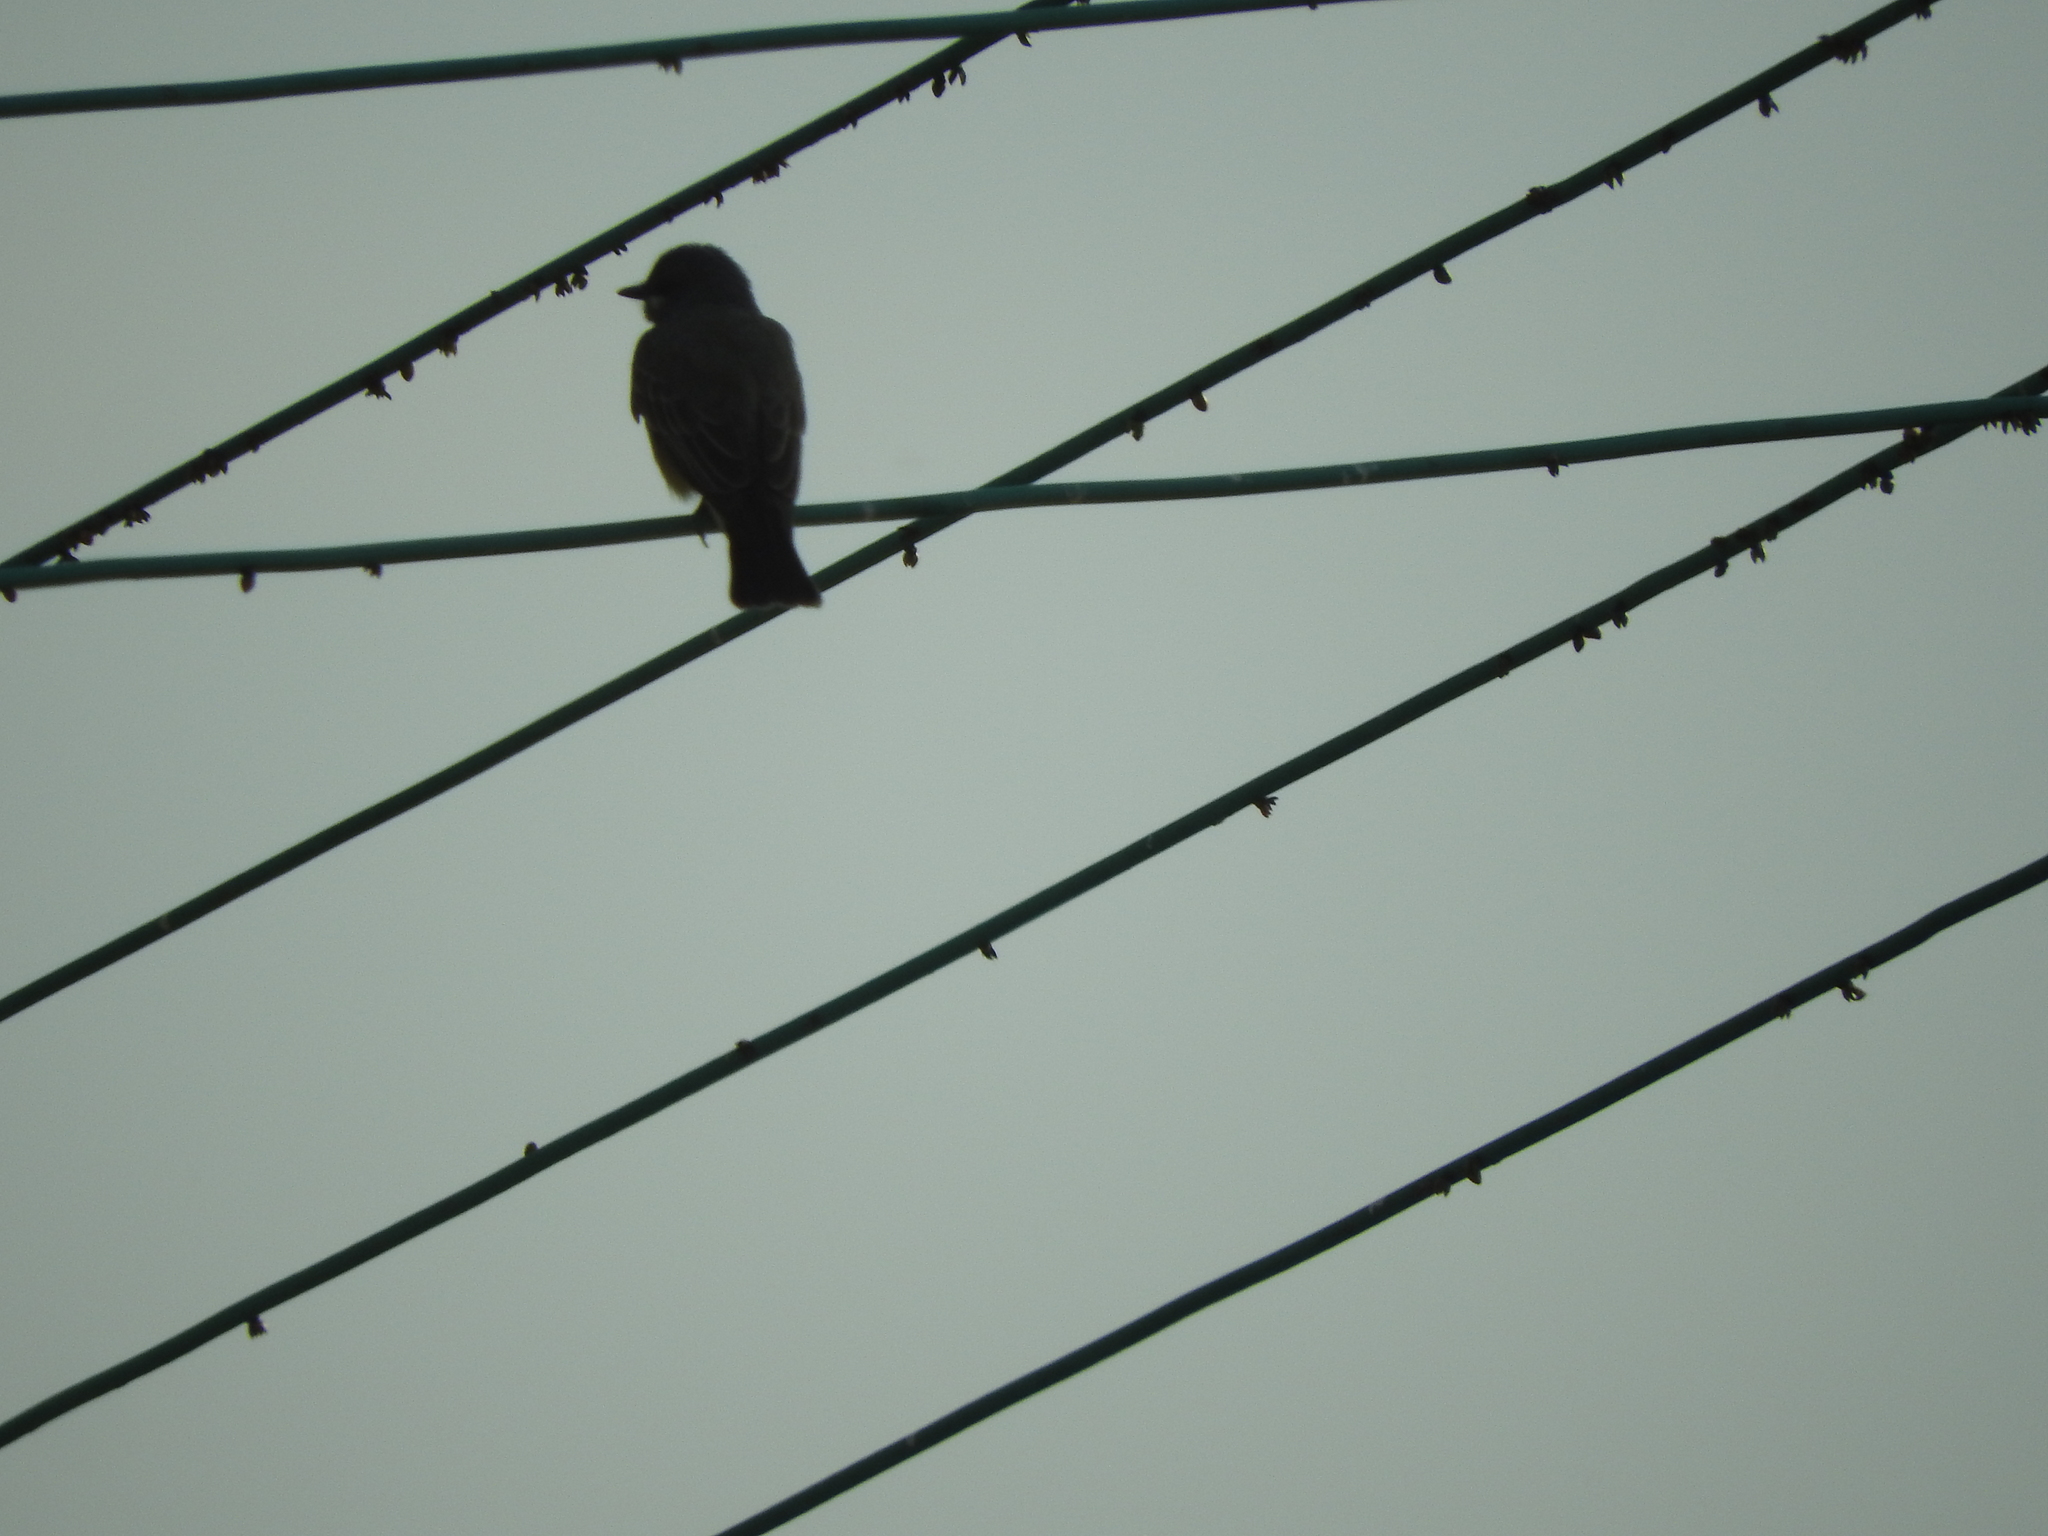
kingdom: Animalia
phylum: Chordata
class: Aves
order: Passeriformes
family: Tyrannidae
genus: Tyrannus
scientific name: Tyrannus vociferans
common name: Cassin's kingbird
